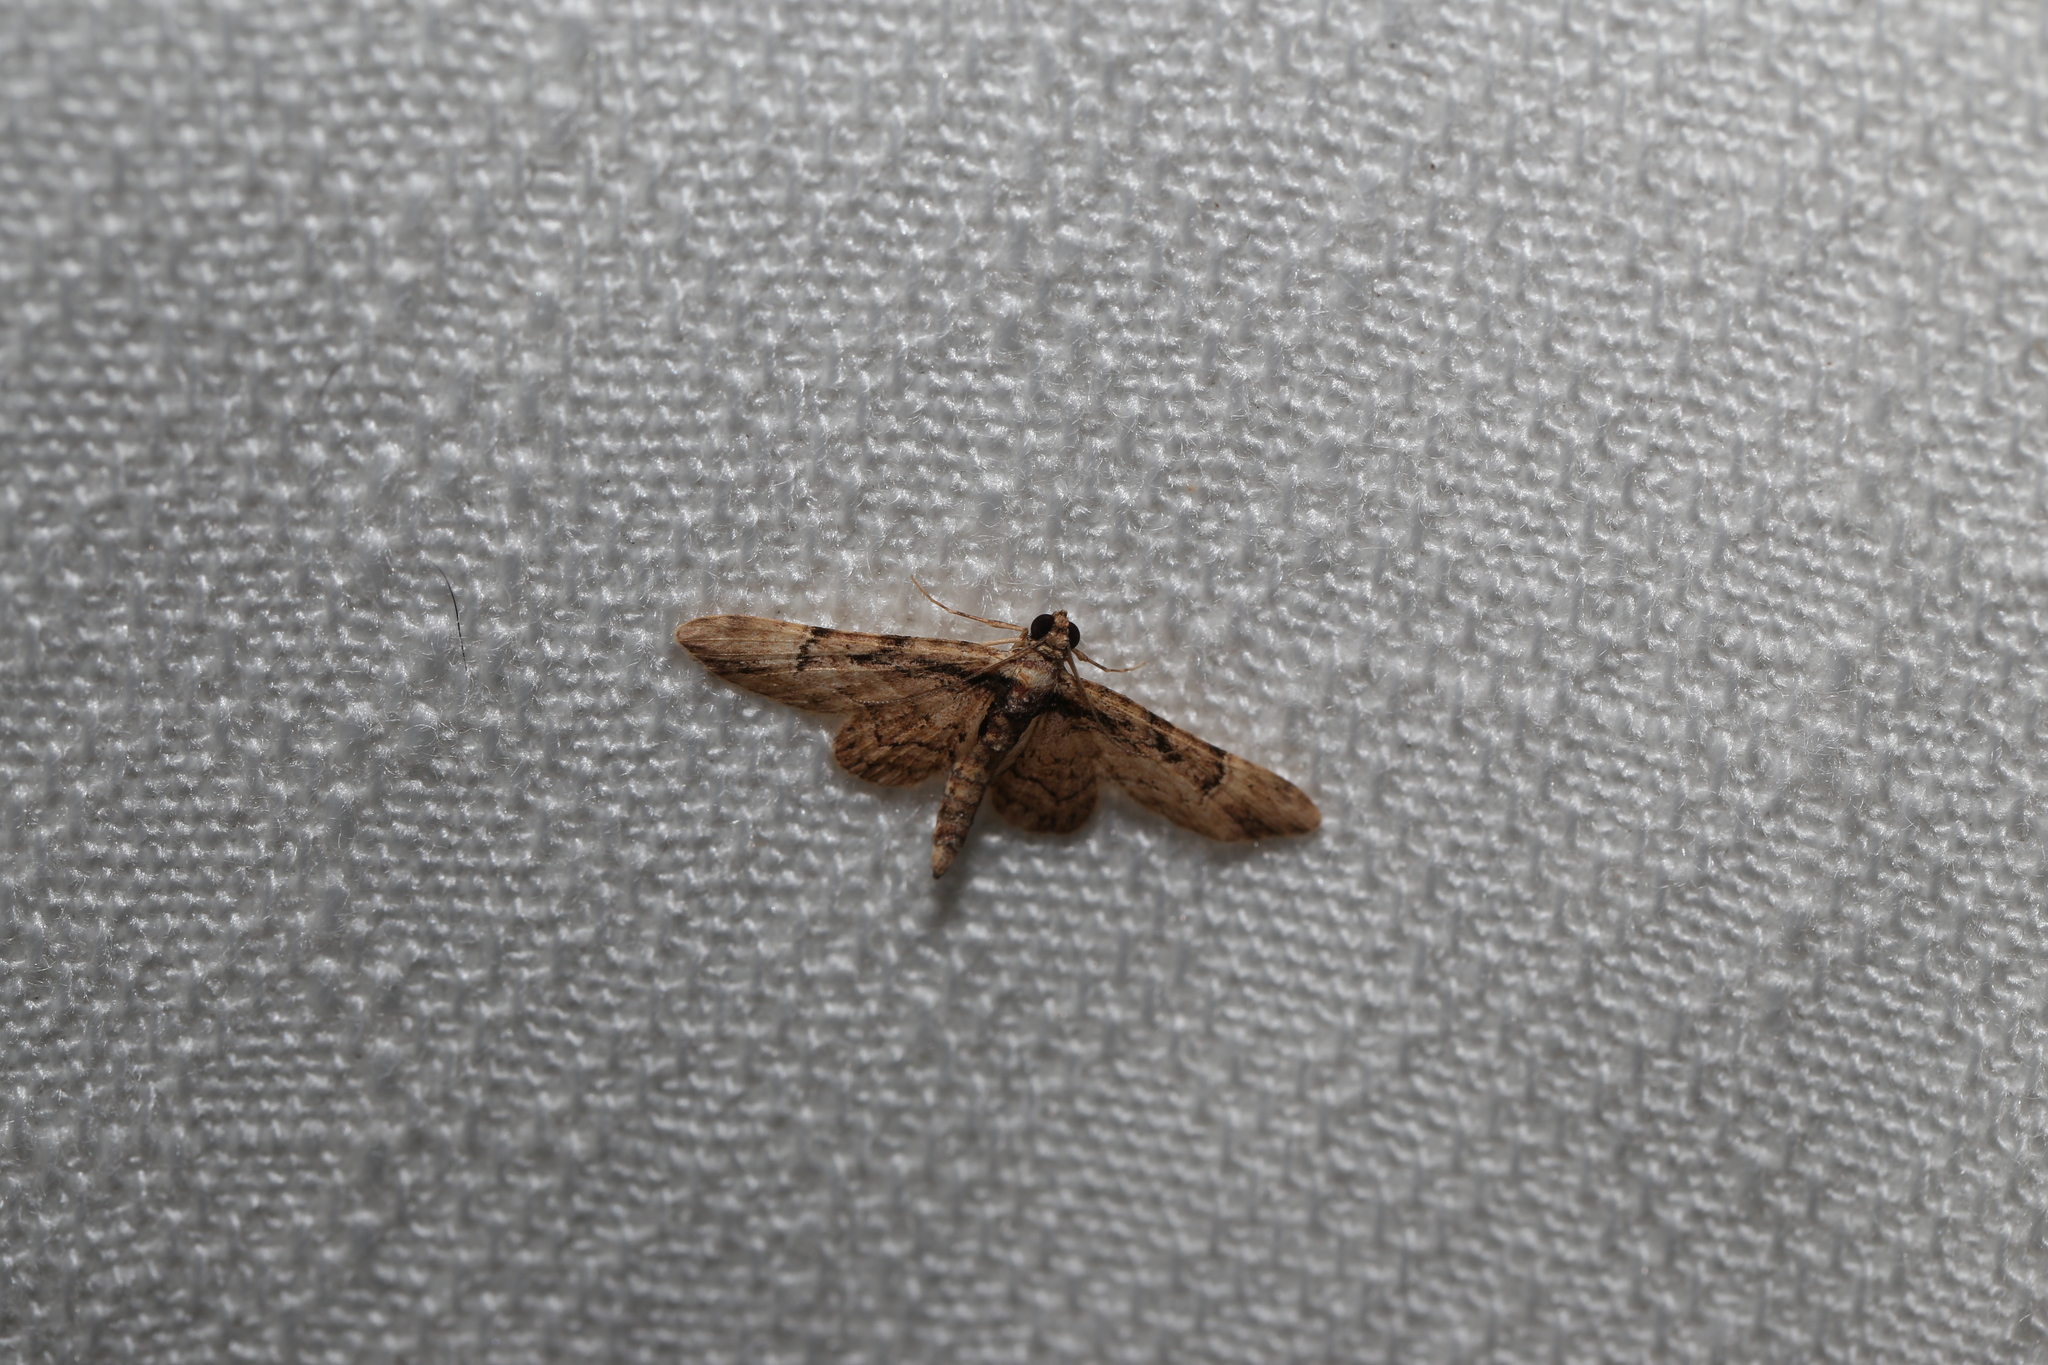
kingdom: Animalia
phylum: Arthropoda
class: Insecta
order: Lepidoptera
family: Geometridae
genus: Gymnoscelis
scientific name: Gymnoscelis ischnophylla
